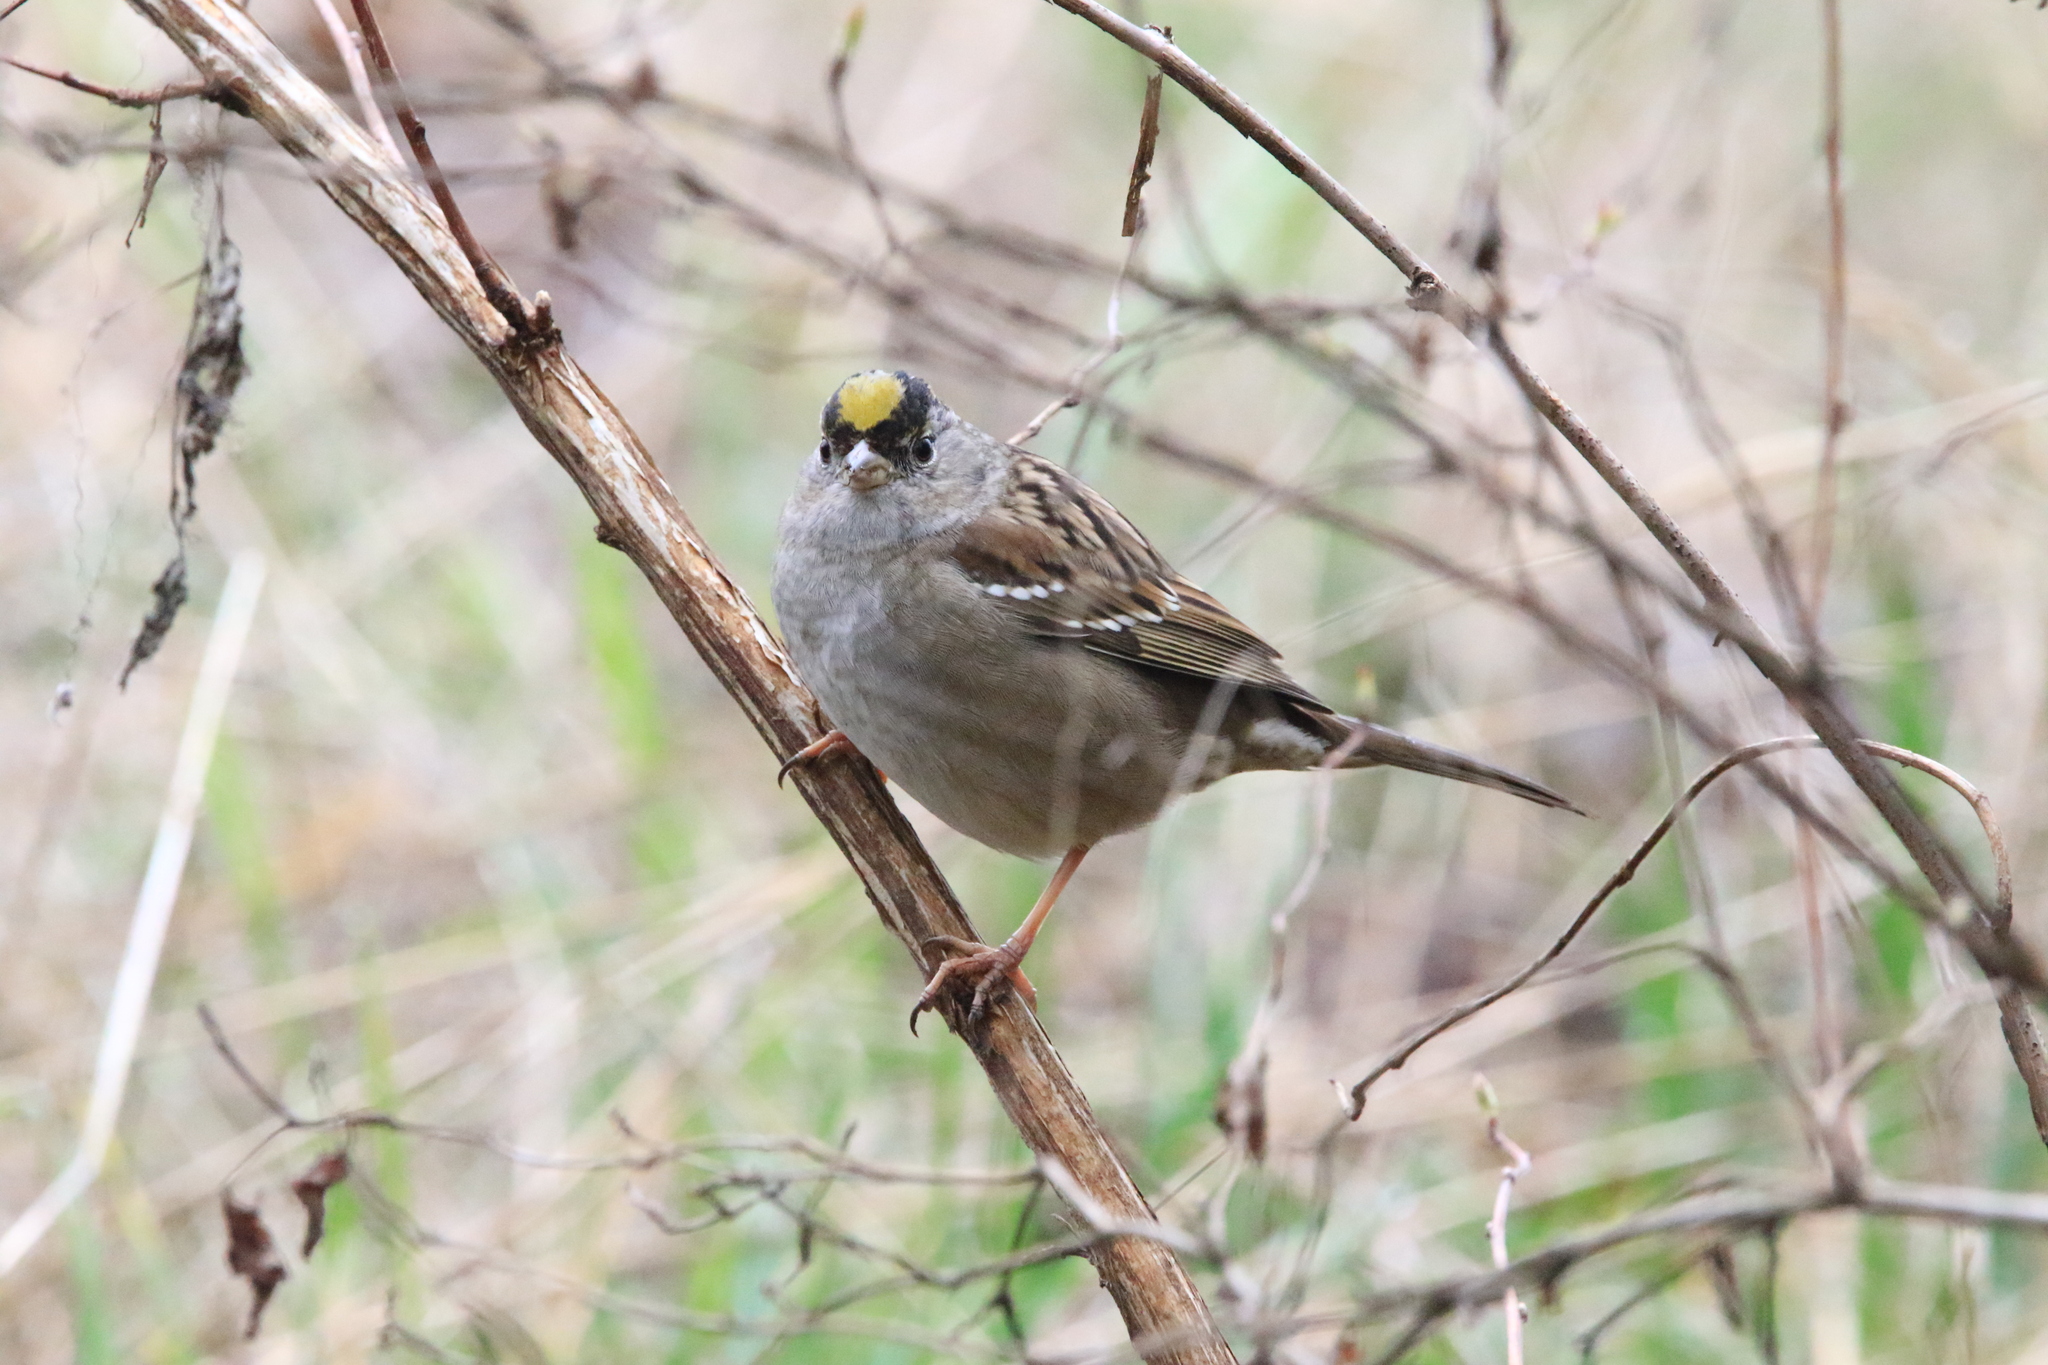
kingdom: Animalia
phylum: Chordata
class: Aves
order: Passeriformes
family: Passerellidae
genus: Zonotrichia
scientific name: Zonotrichia atricapilla
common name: Golden-crowned sparrow
